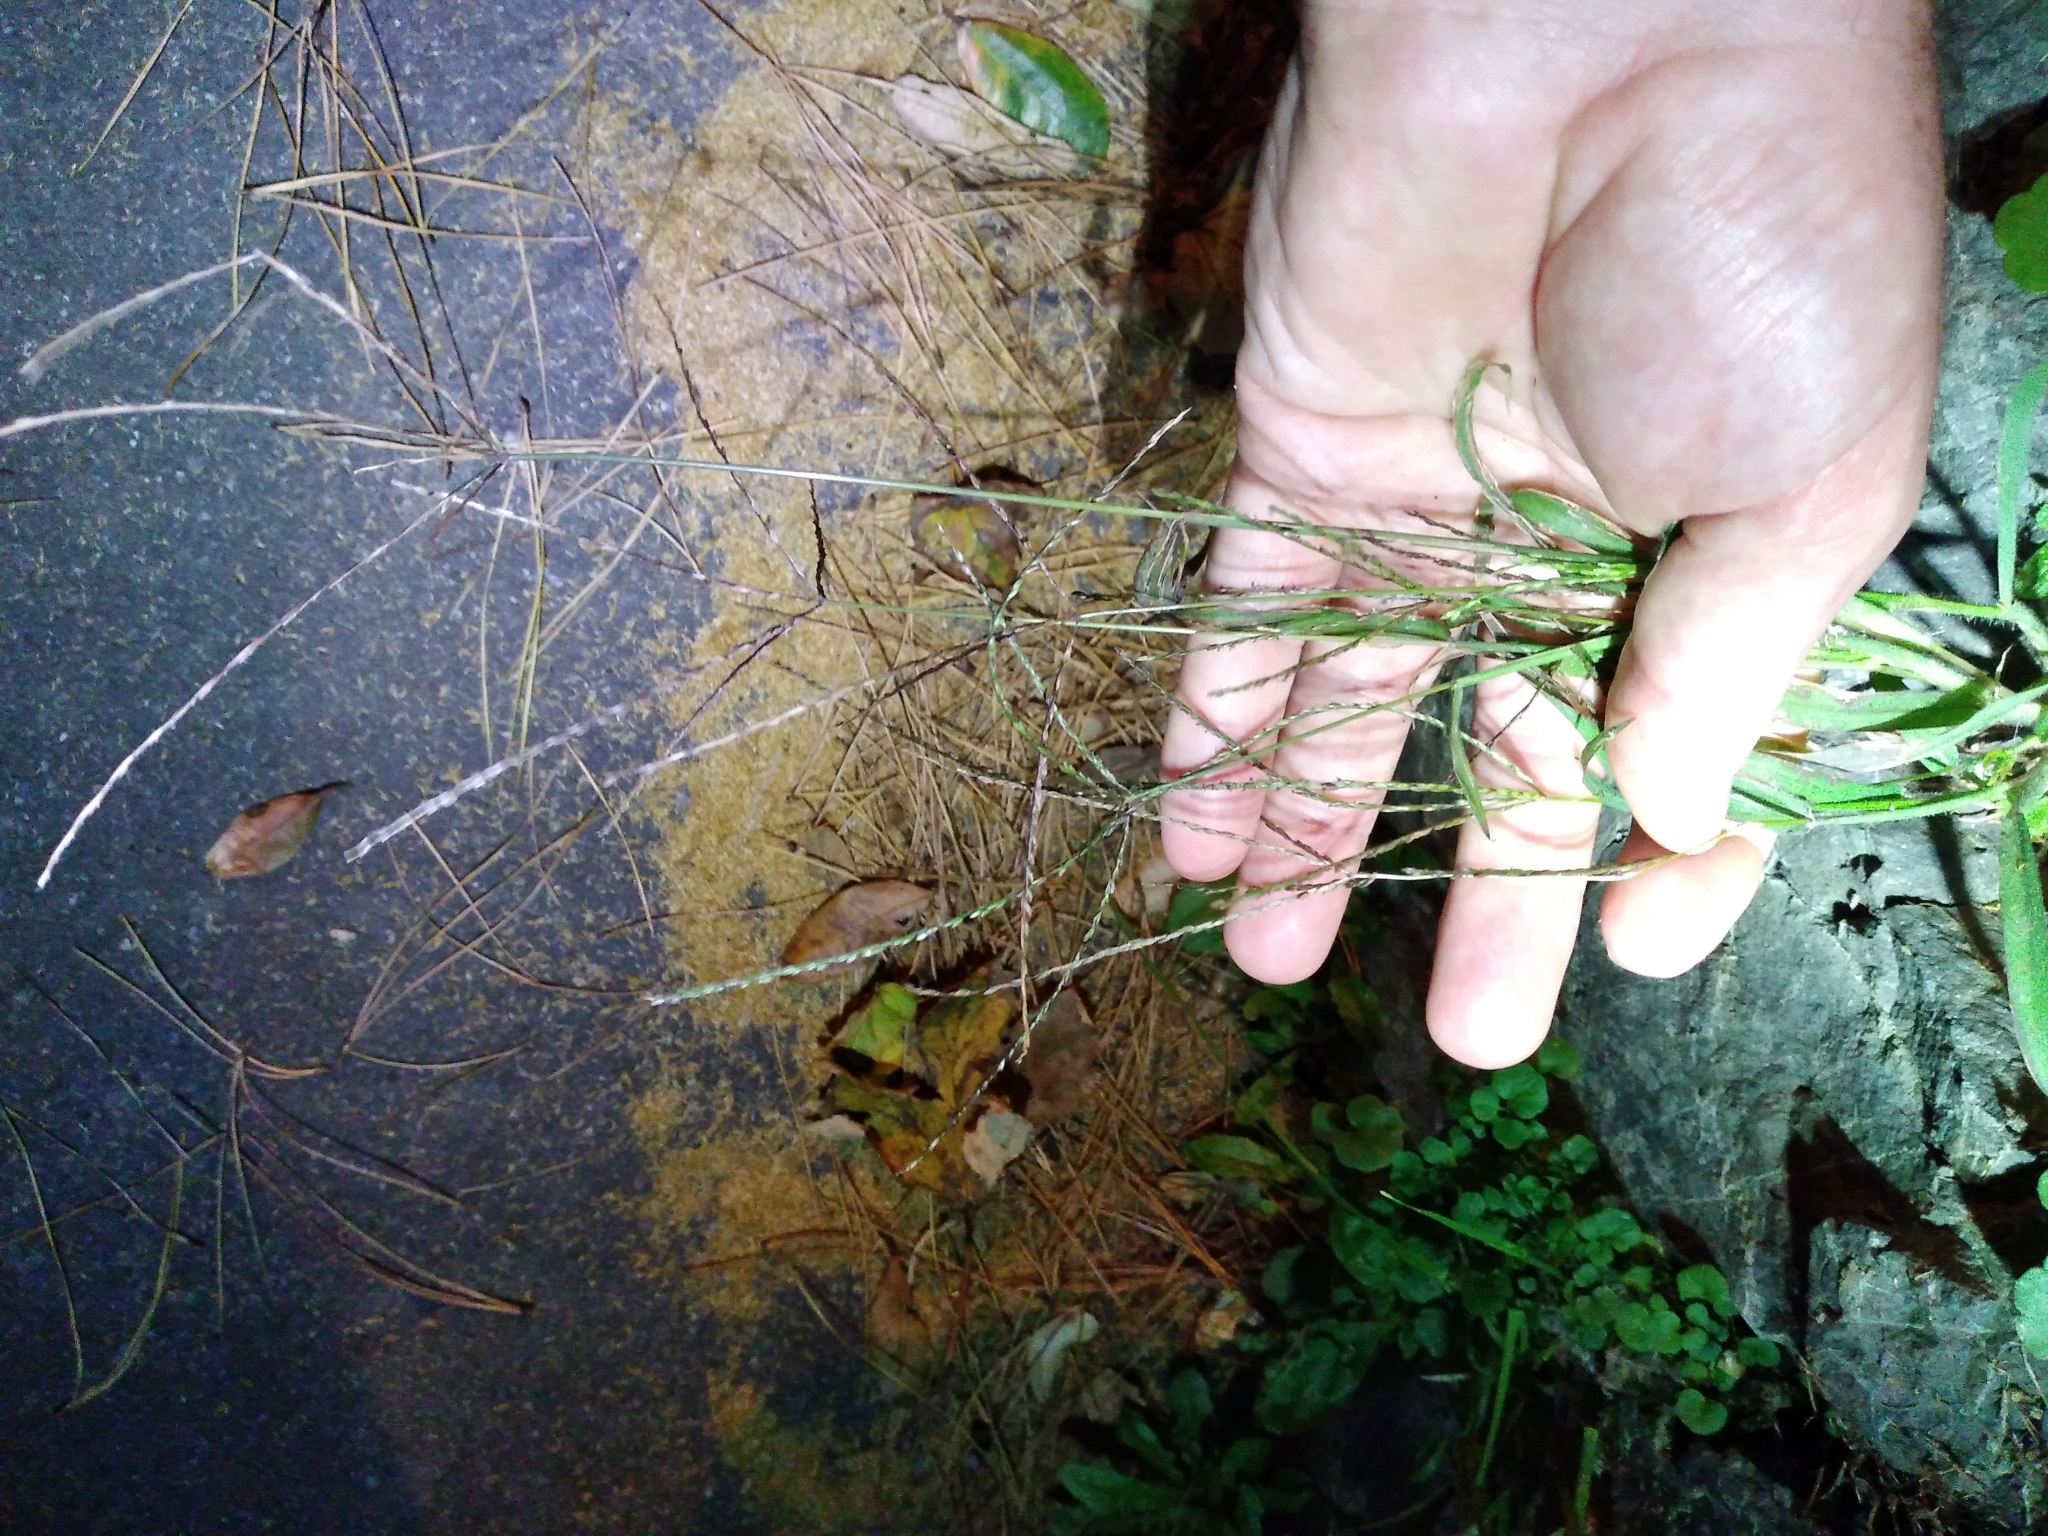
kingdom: Plantae
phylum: Tracheophyta
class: Liliopsida
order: Poales
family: Poaceae
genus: Cynodon
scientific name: Cynodon dactylon
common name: Bermuda grass
